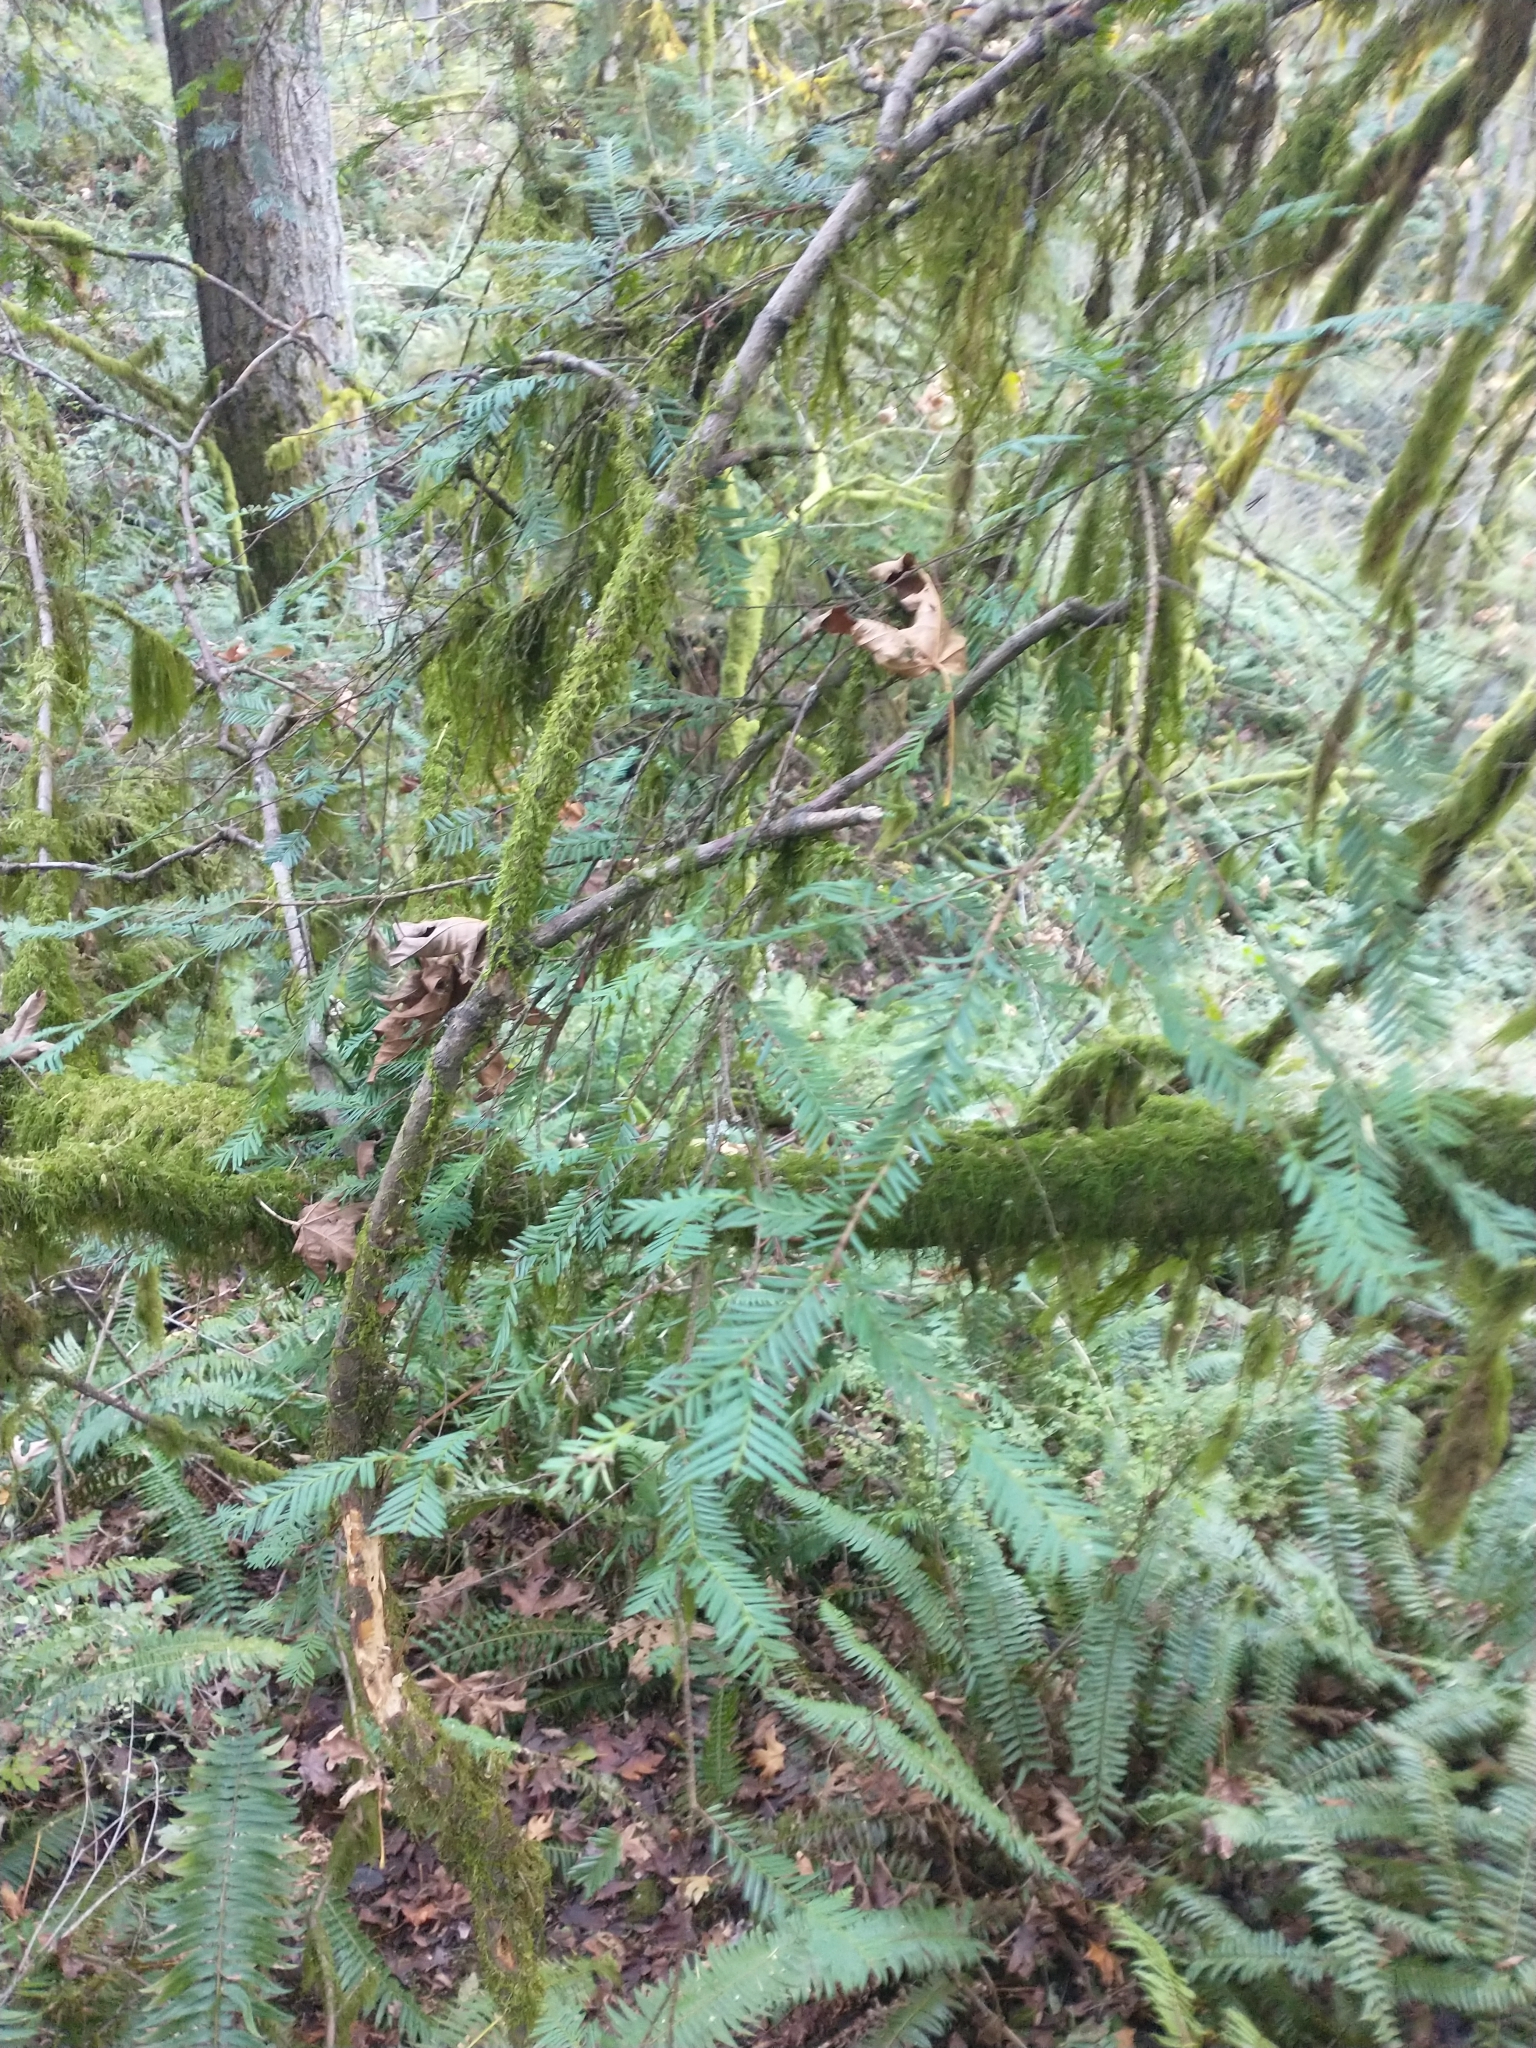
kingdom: Plantae
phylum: Tracheophyta
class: Pinopsida
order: Pinales
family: Taxaceae
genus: Taxus
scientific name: Taxus brevifolia
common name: Pacific yew
